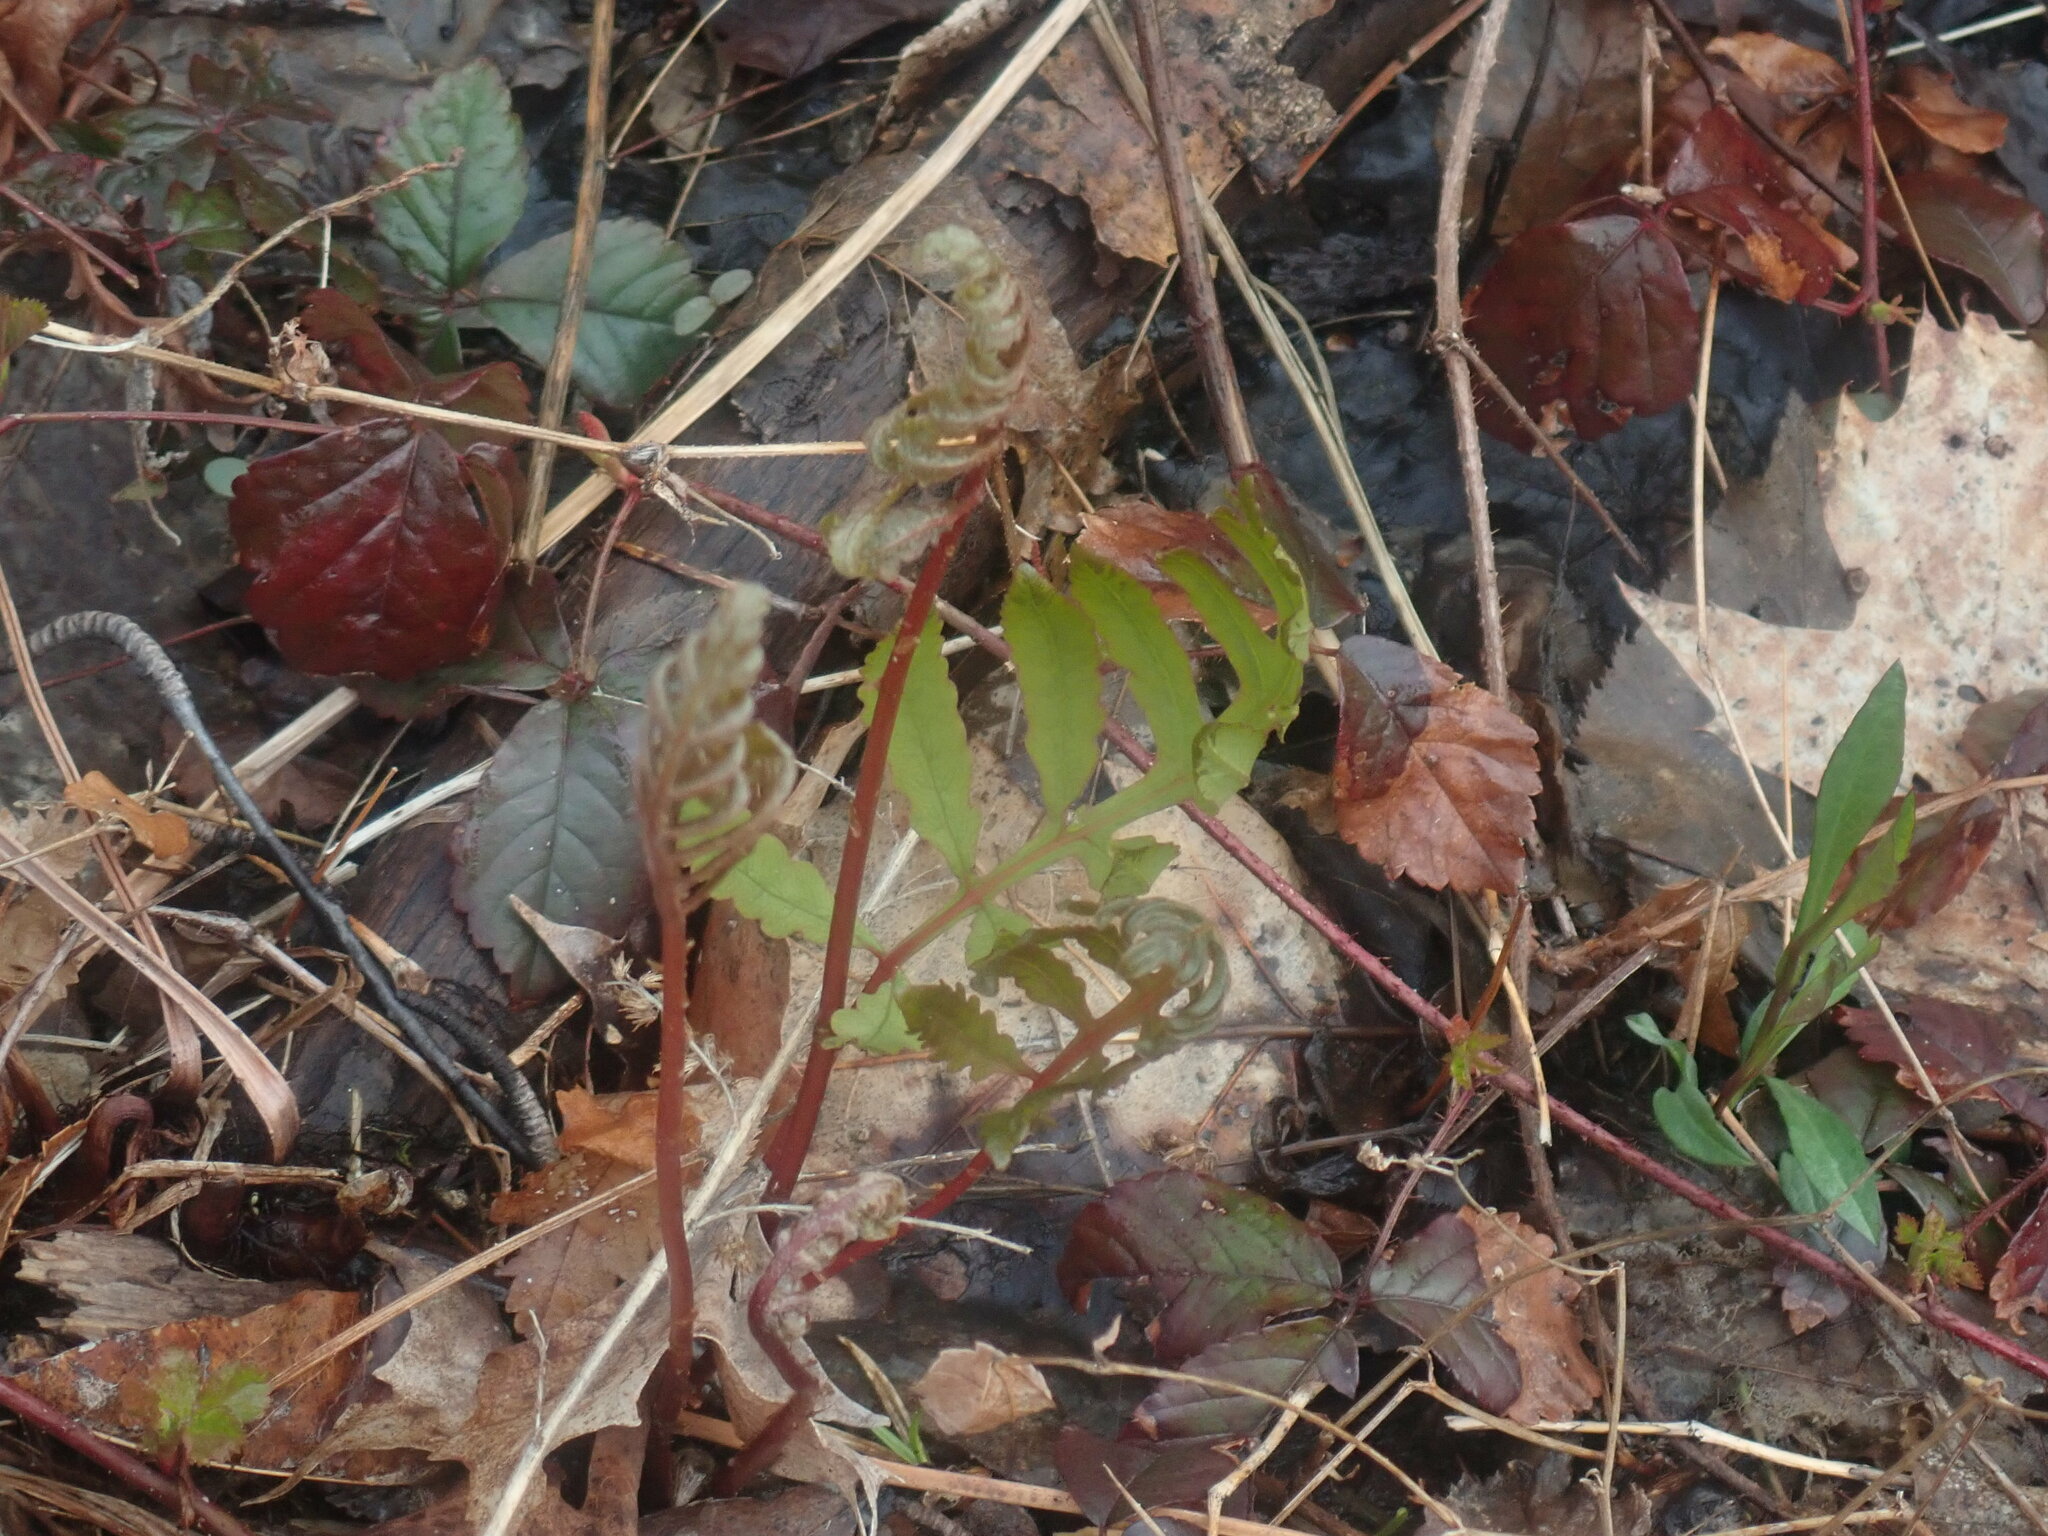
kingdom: Plantae
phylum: Tracheophyta
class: Polypodiopsida
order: Polypodiales
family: Onocleaceae
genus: Onoclea
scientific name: Onoclea sensibilis
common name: Sensitive fern
